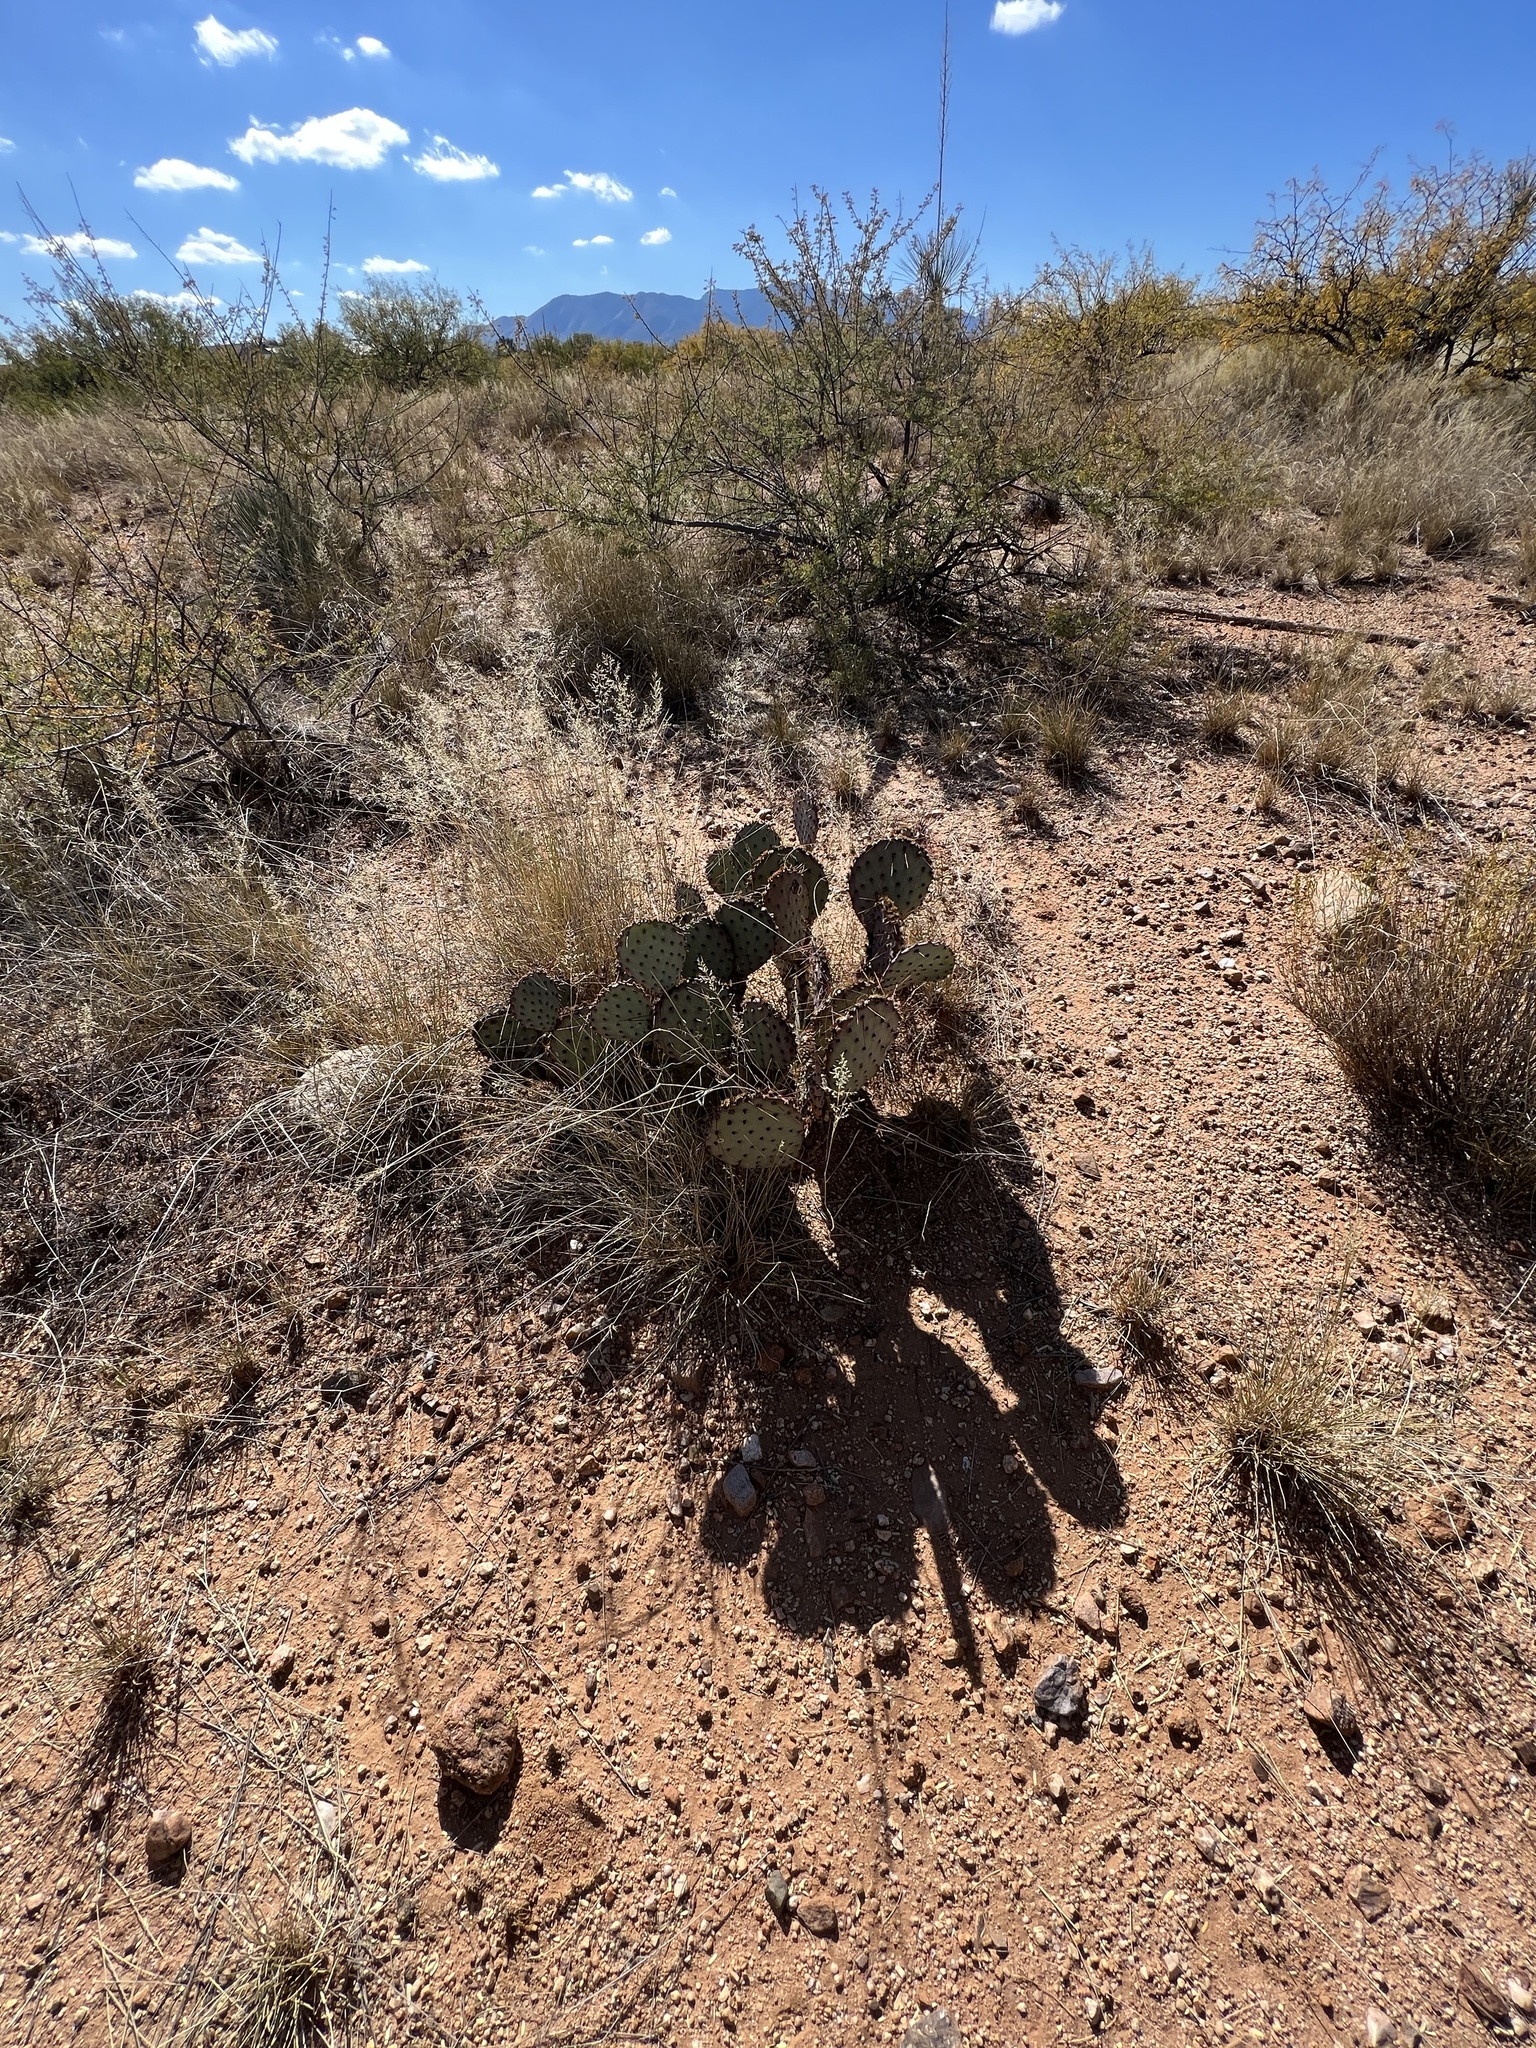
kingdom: Plantae
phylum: Tracheophyta
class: Magnoliopsida
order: Caryophyllales
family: Cactaceae
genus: Opuntia
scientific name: Opuntia macrocentra
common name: Purple prickly-pear
